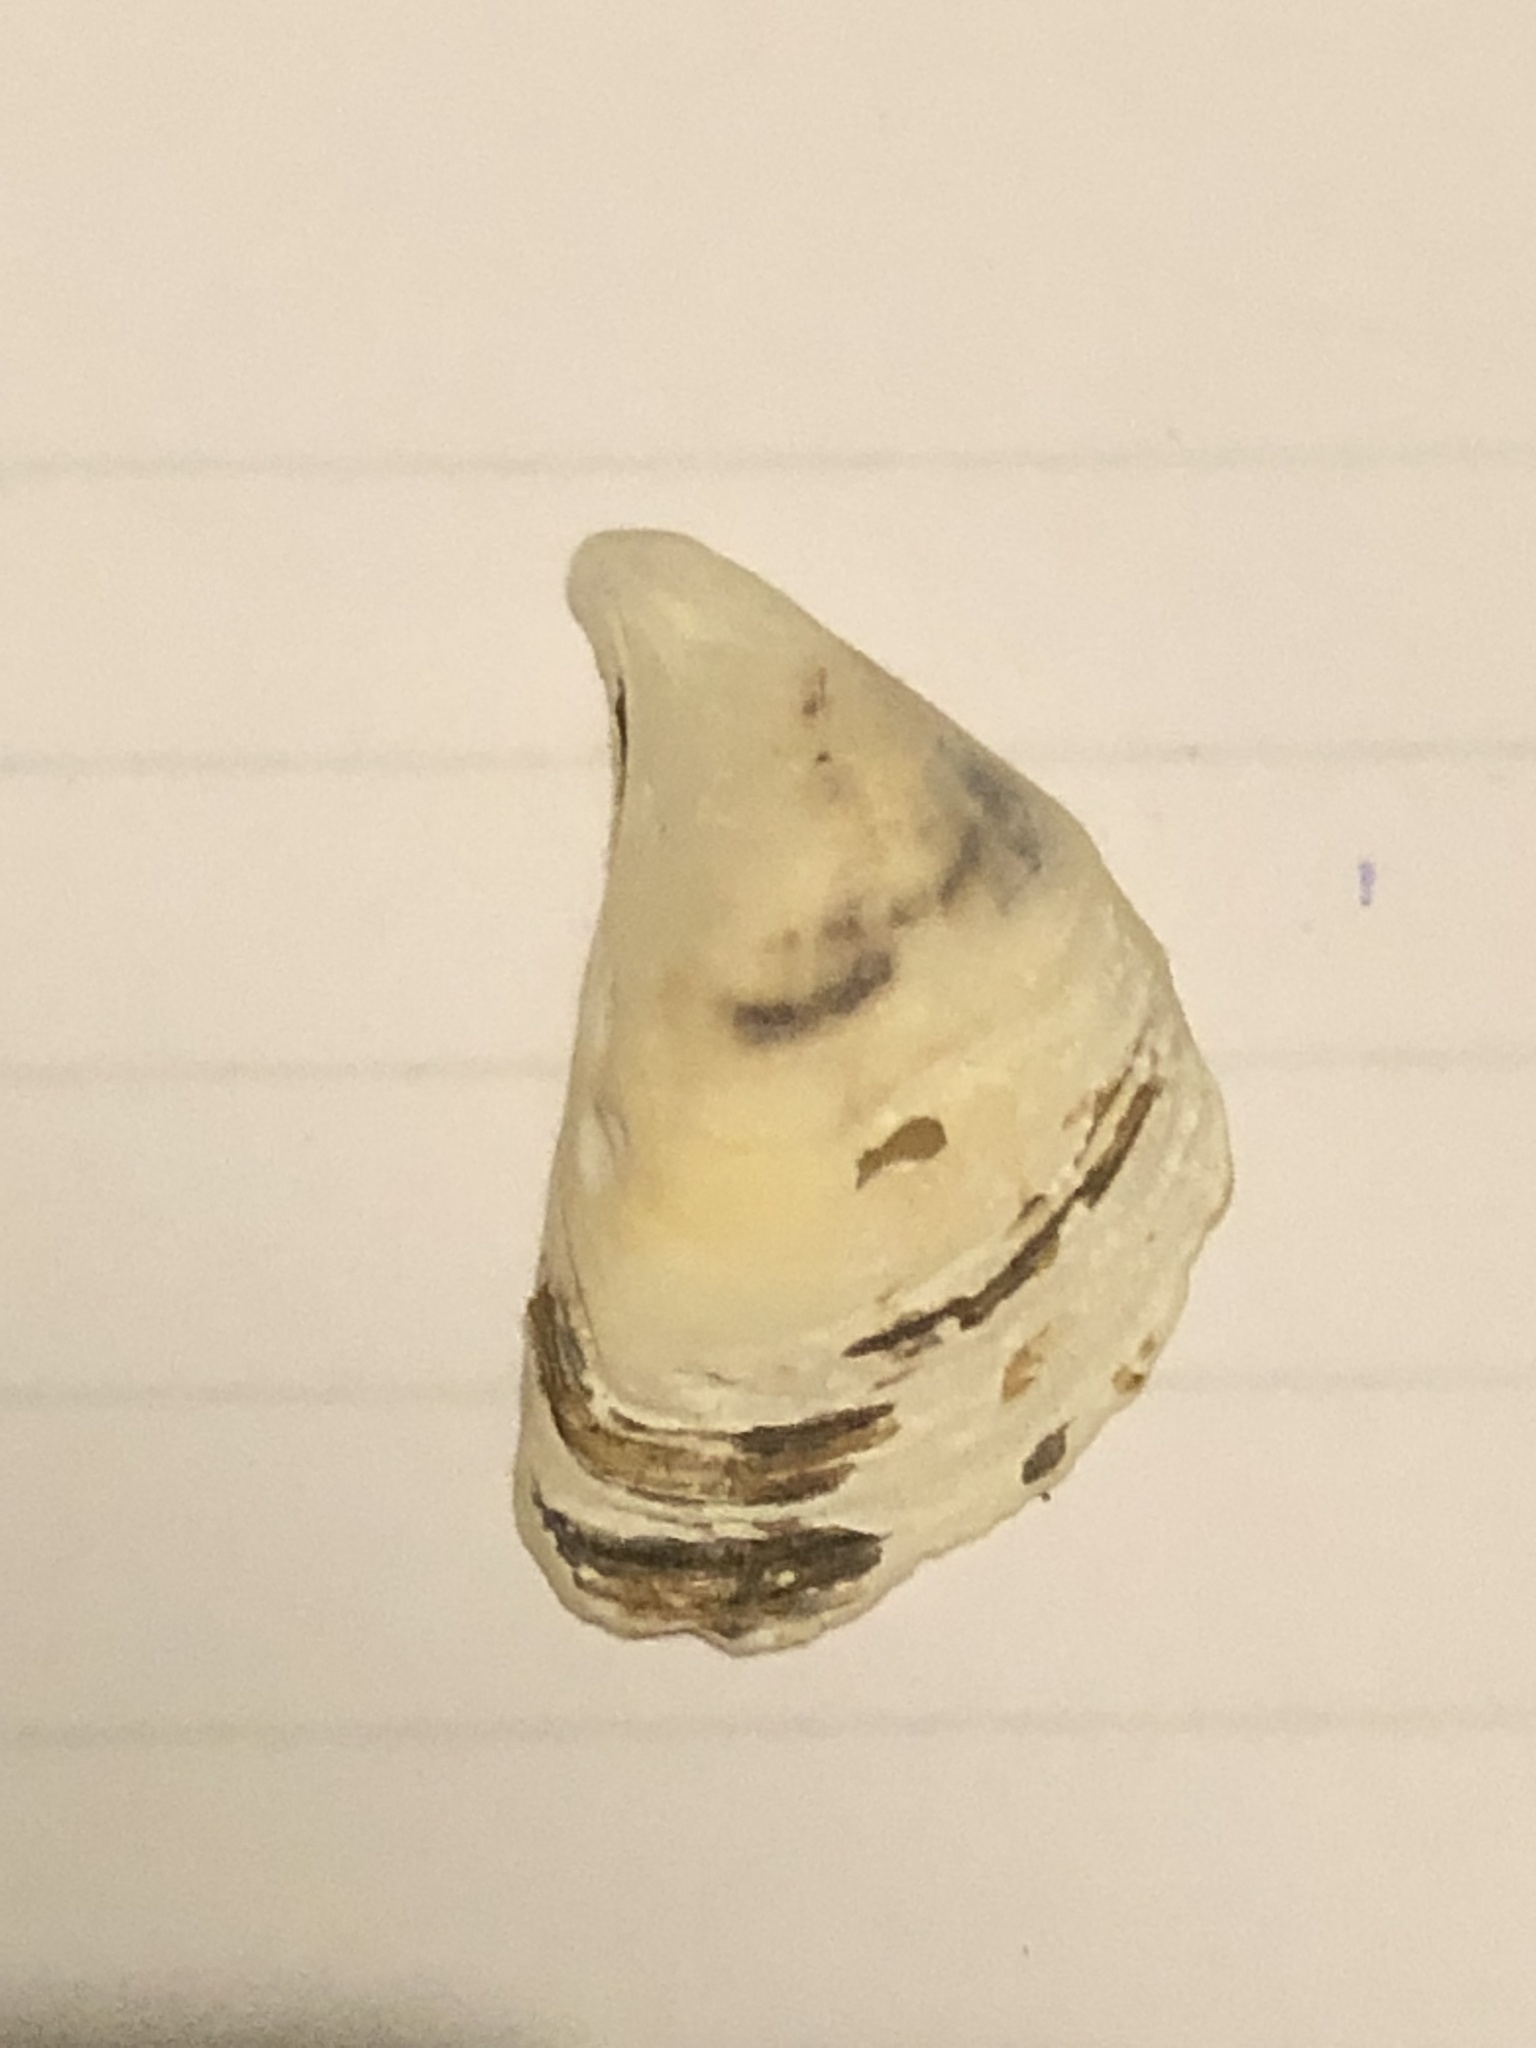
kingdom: Animalia
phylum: Mollusca
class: Bivalvia
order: Myida
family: Dreissenidae
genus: Dreissena
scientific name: Dreissena bugensis
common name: Quagga mussel
